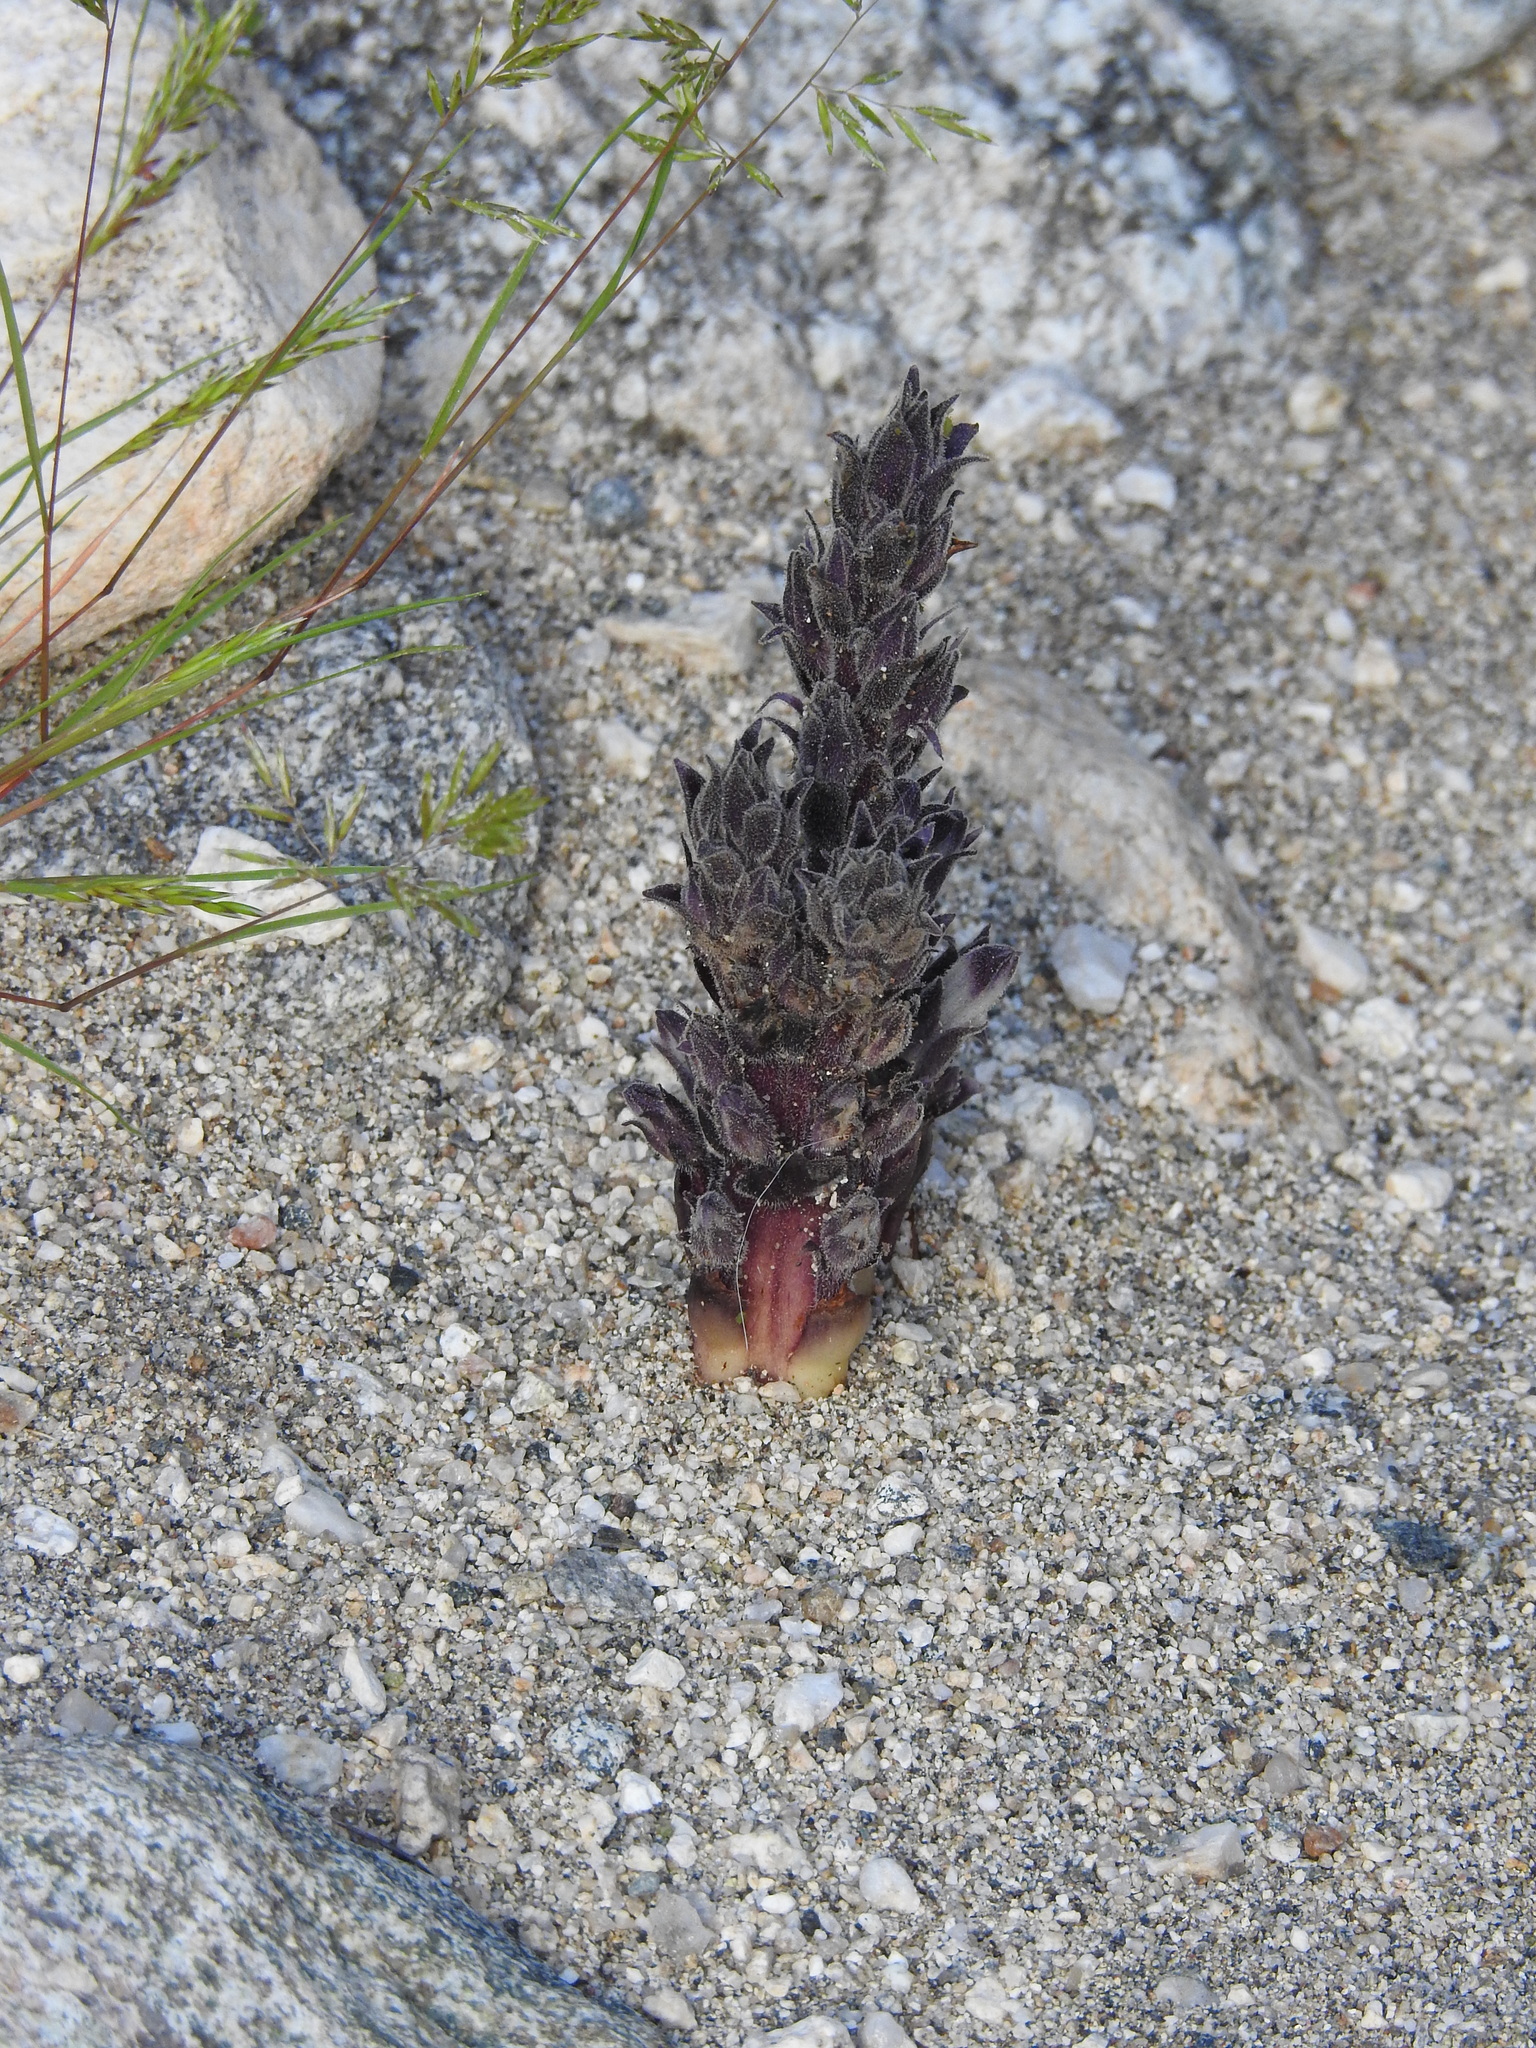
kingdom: Plantae
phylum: Tracheophyta
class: Magnoliopsida
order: Lamiales
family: Orobanchaceae
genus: Aphyllon
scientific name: Aphyllon cooperi
